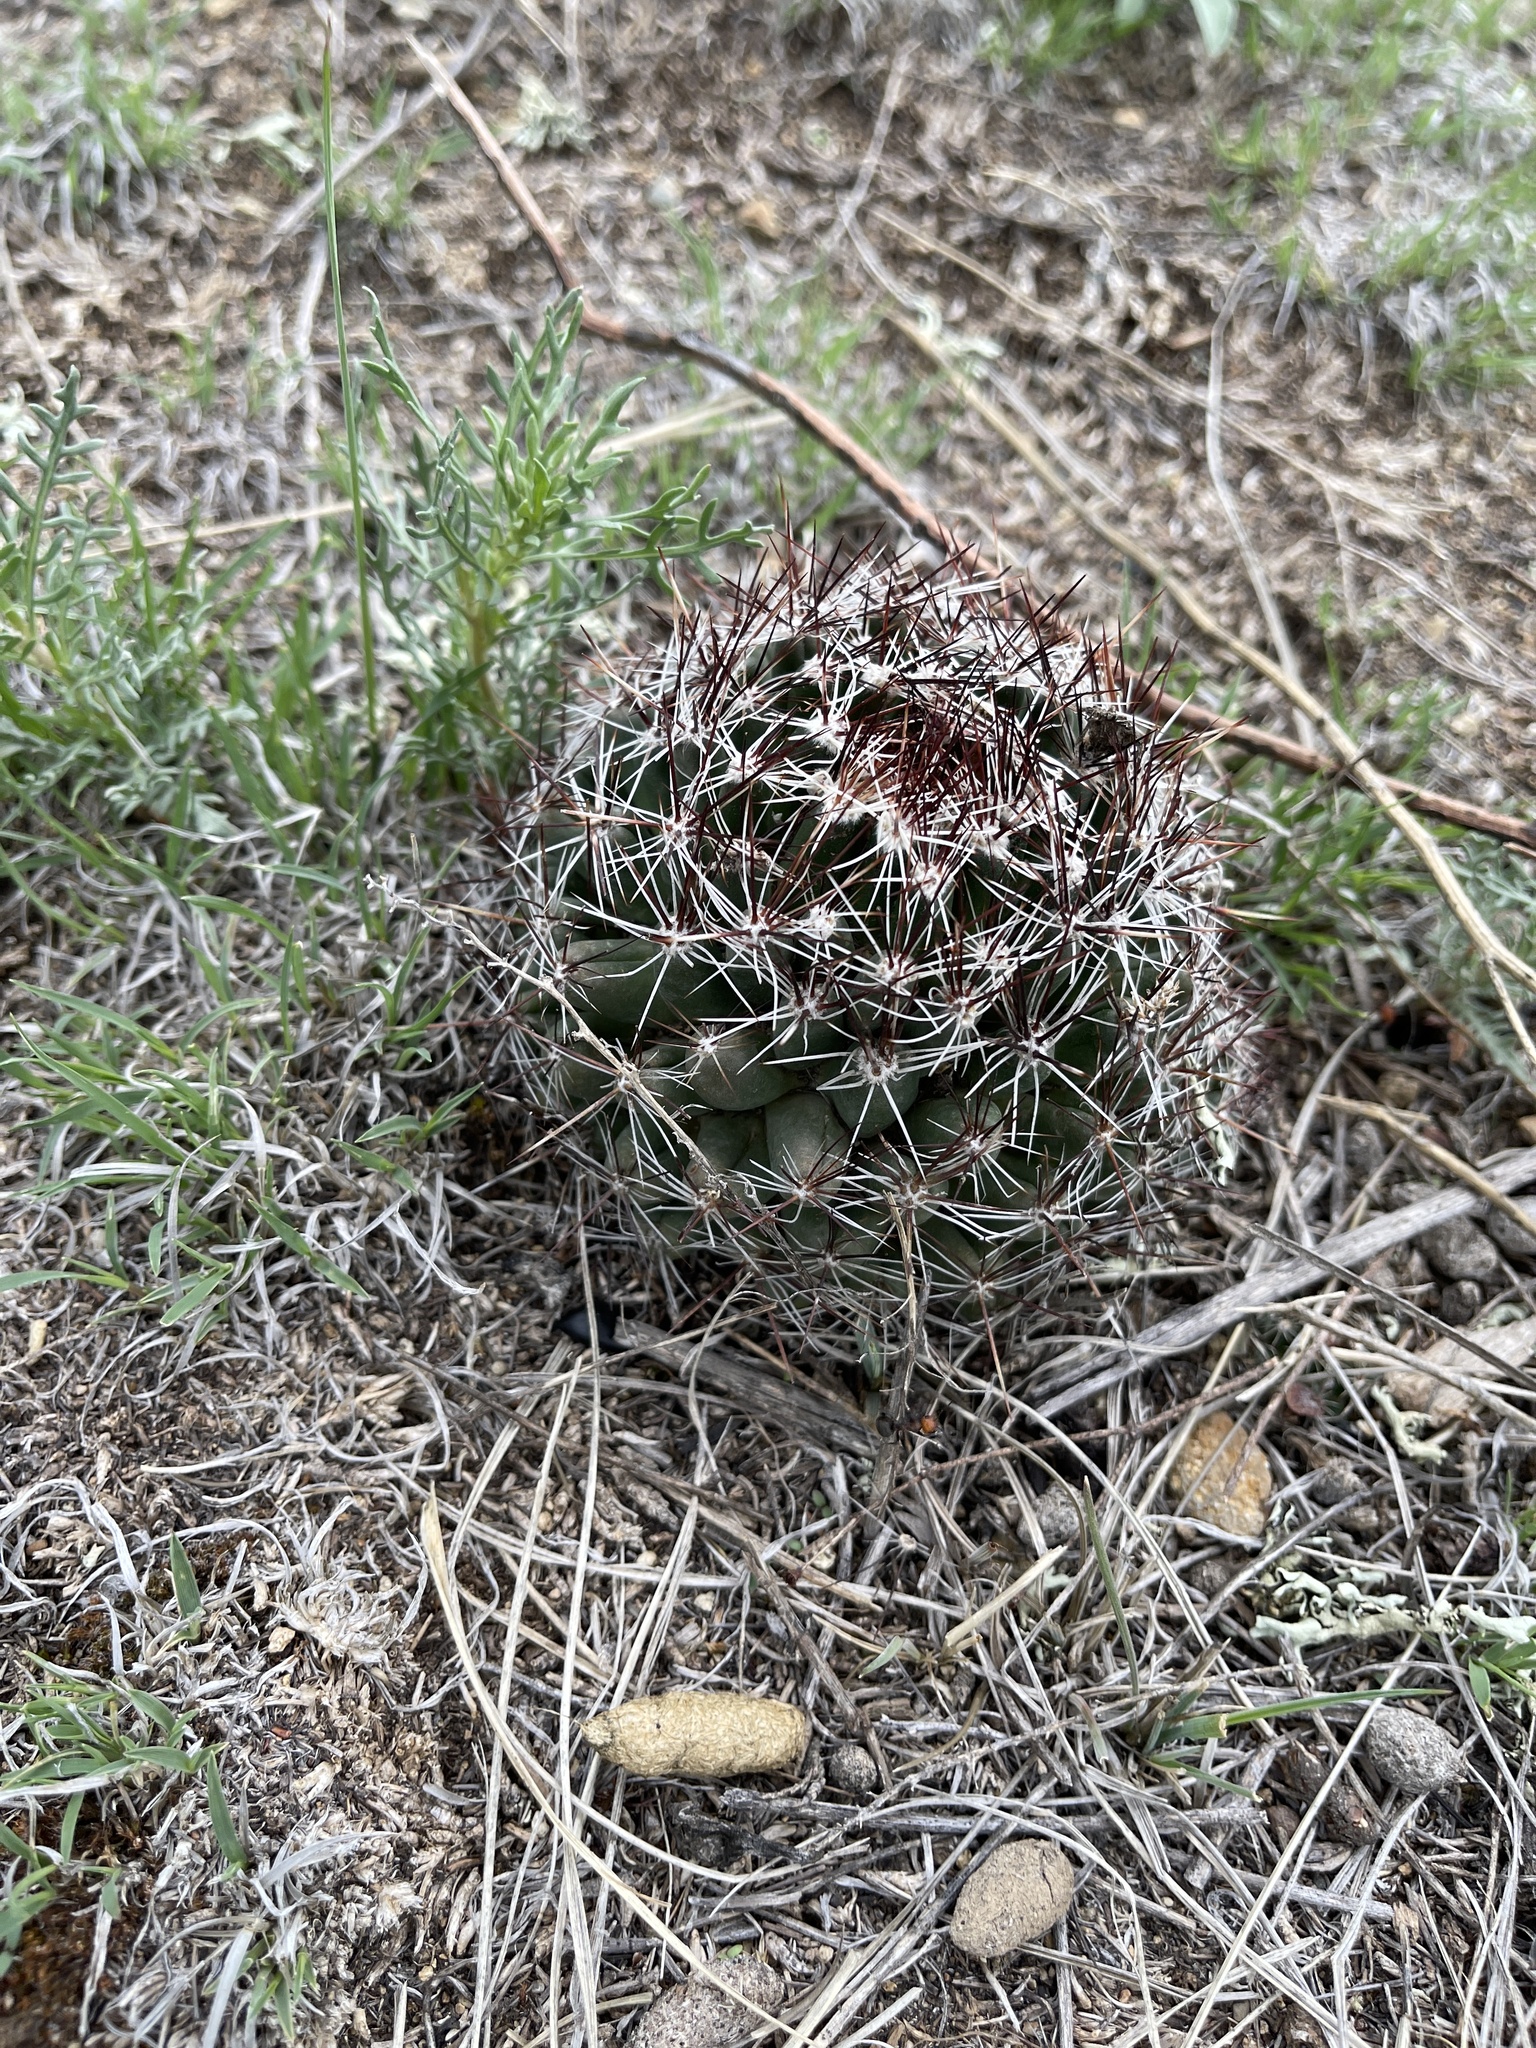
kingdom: Plantae
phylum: Tracheophyta
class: Magnoliopsida
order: Caryophyllales
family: Cactaceae
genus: Pelecyphora
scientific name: Pelecyphora vivipara
